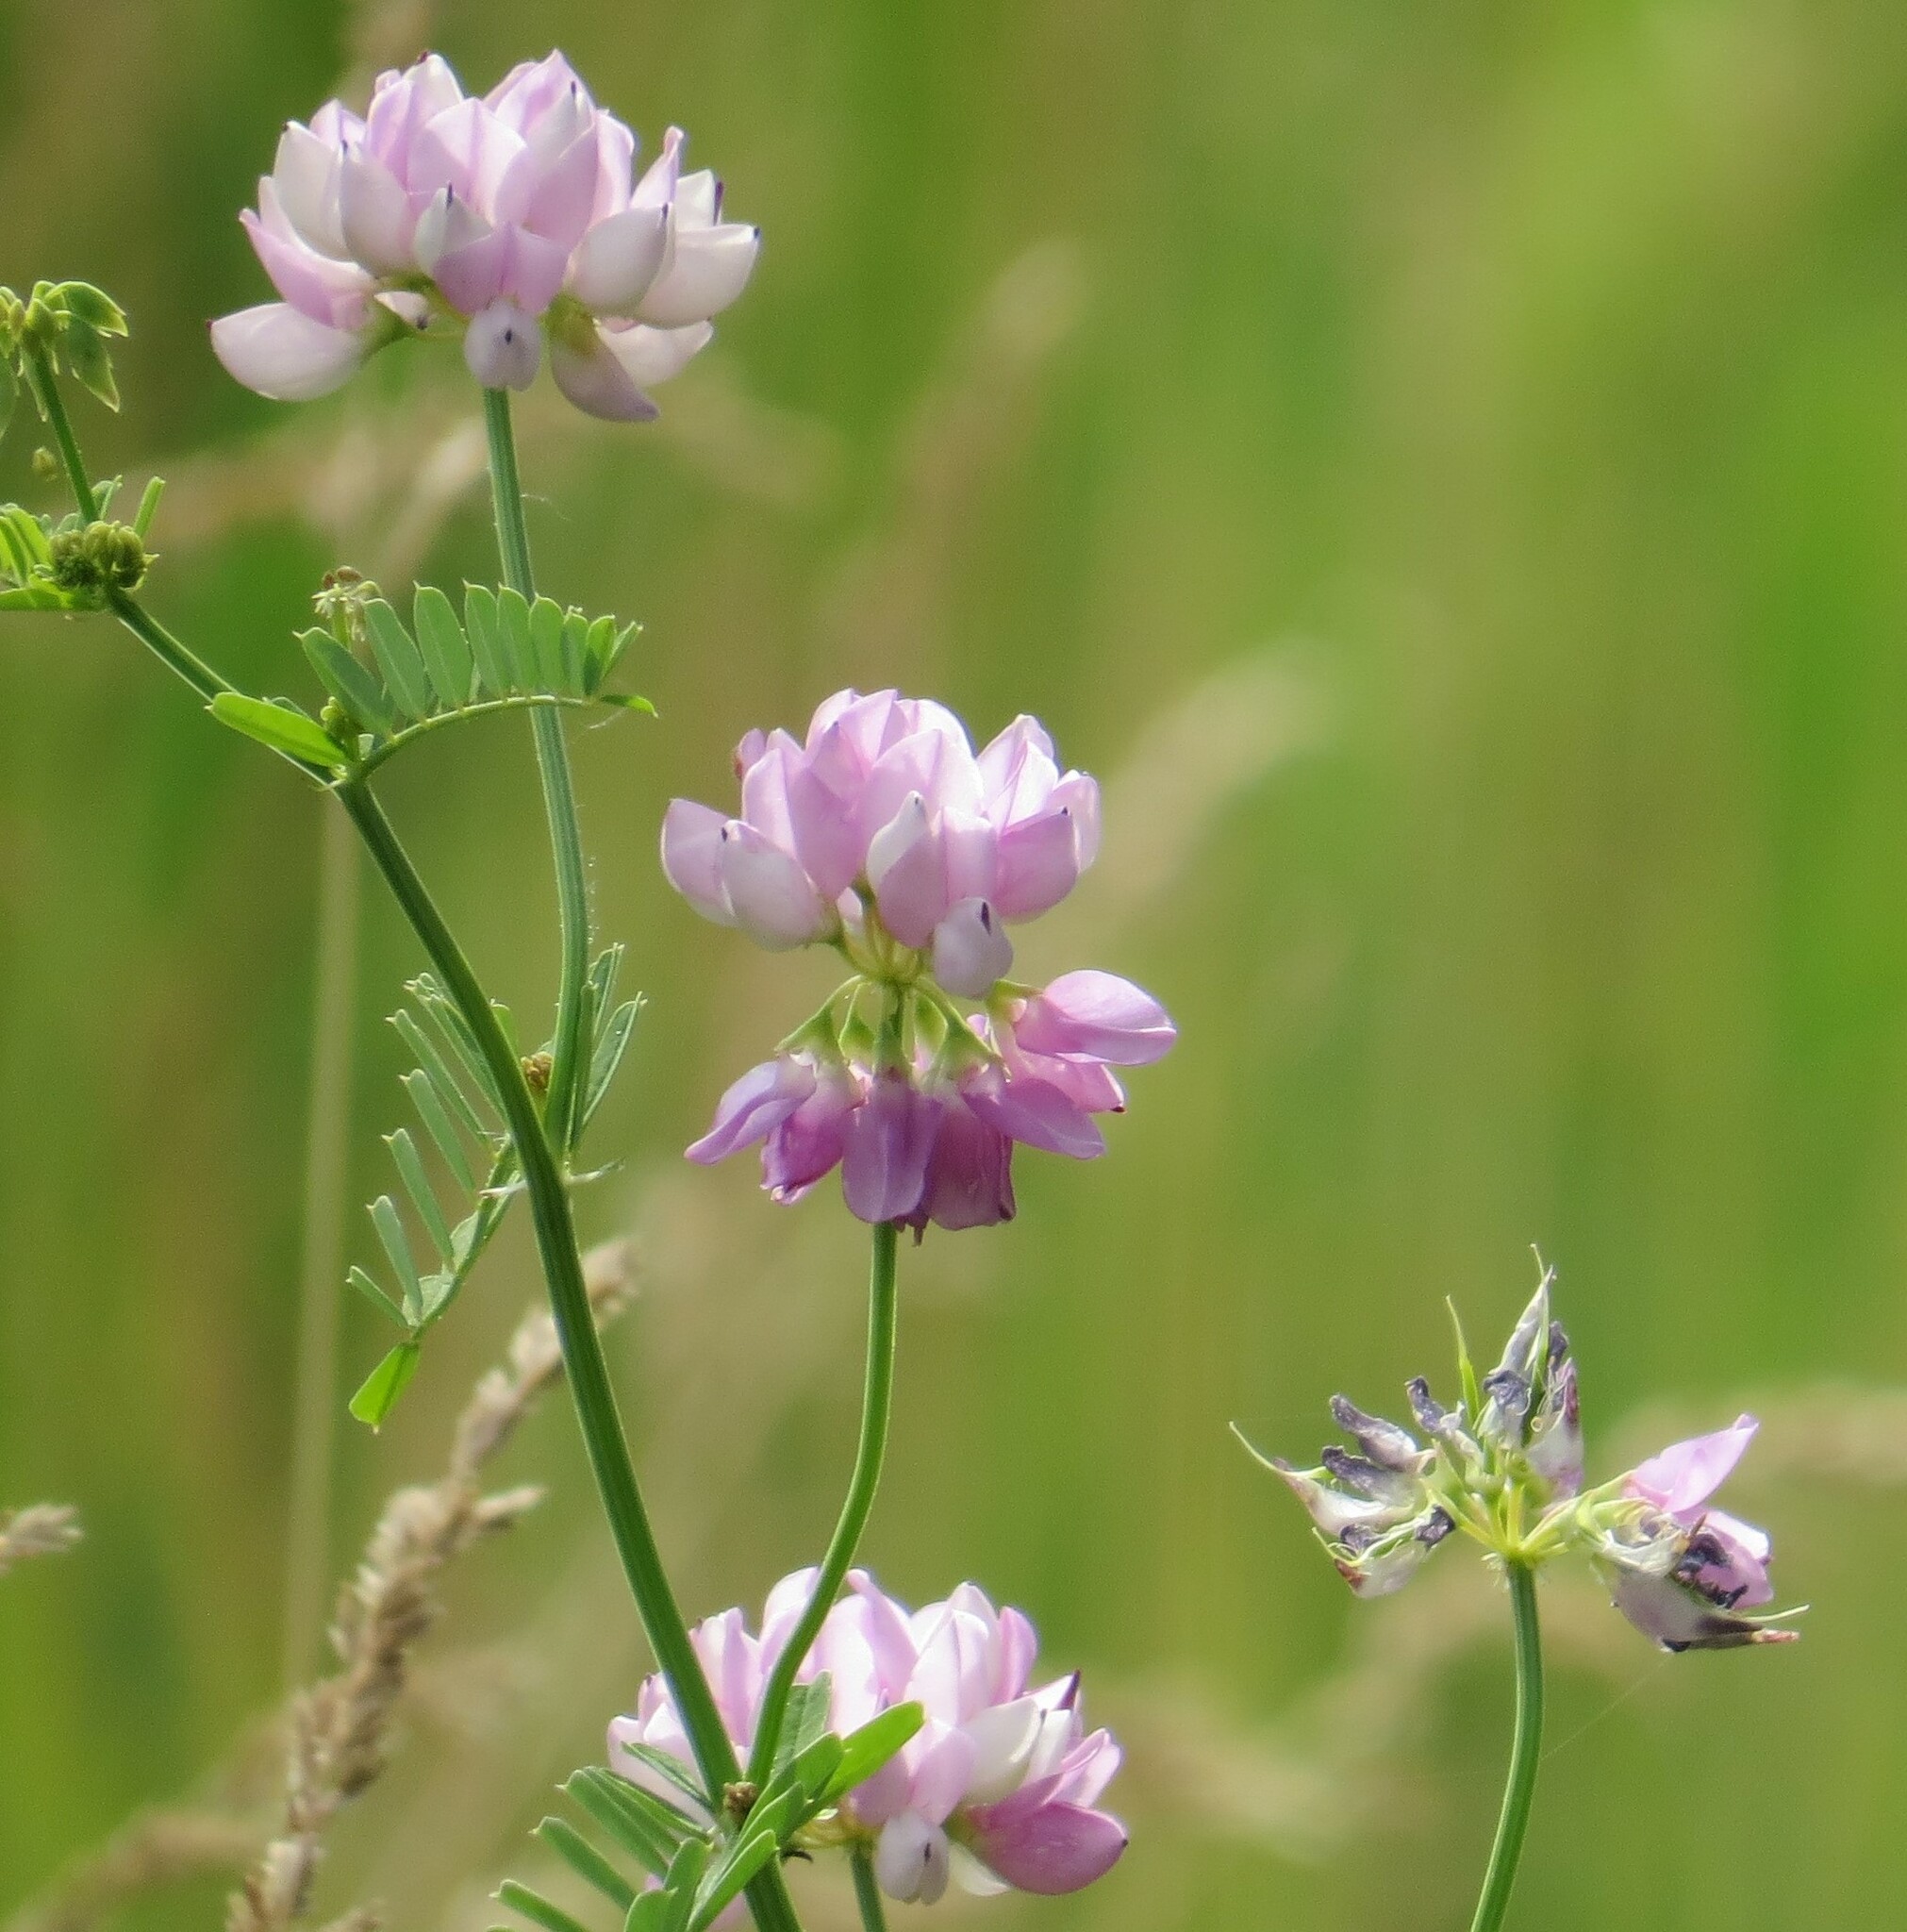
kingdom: Plantae
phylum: Tracheophyta
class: Magnoliopsida
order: Fabales
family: Fabaceae
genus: Coronilla
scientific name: Coronilla varia
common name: Crownvetch
